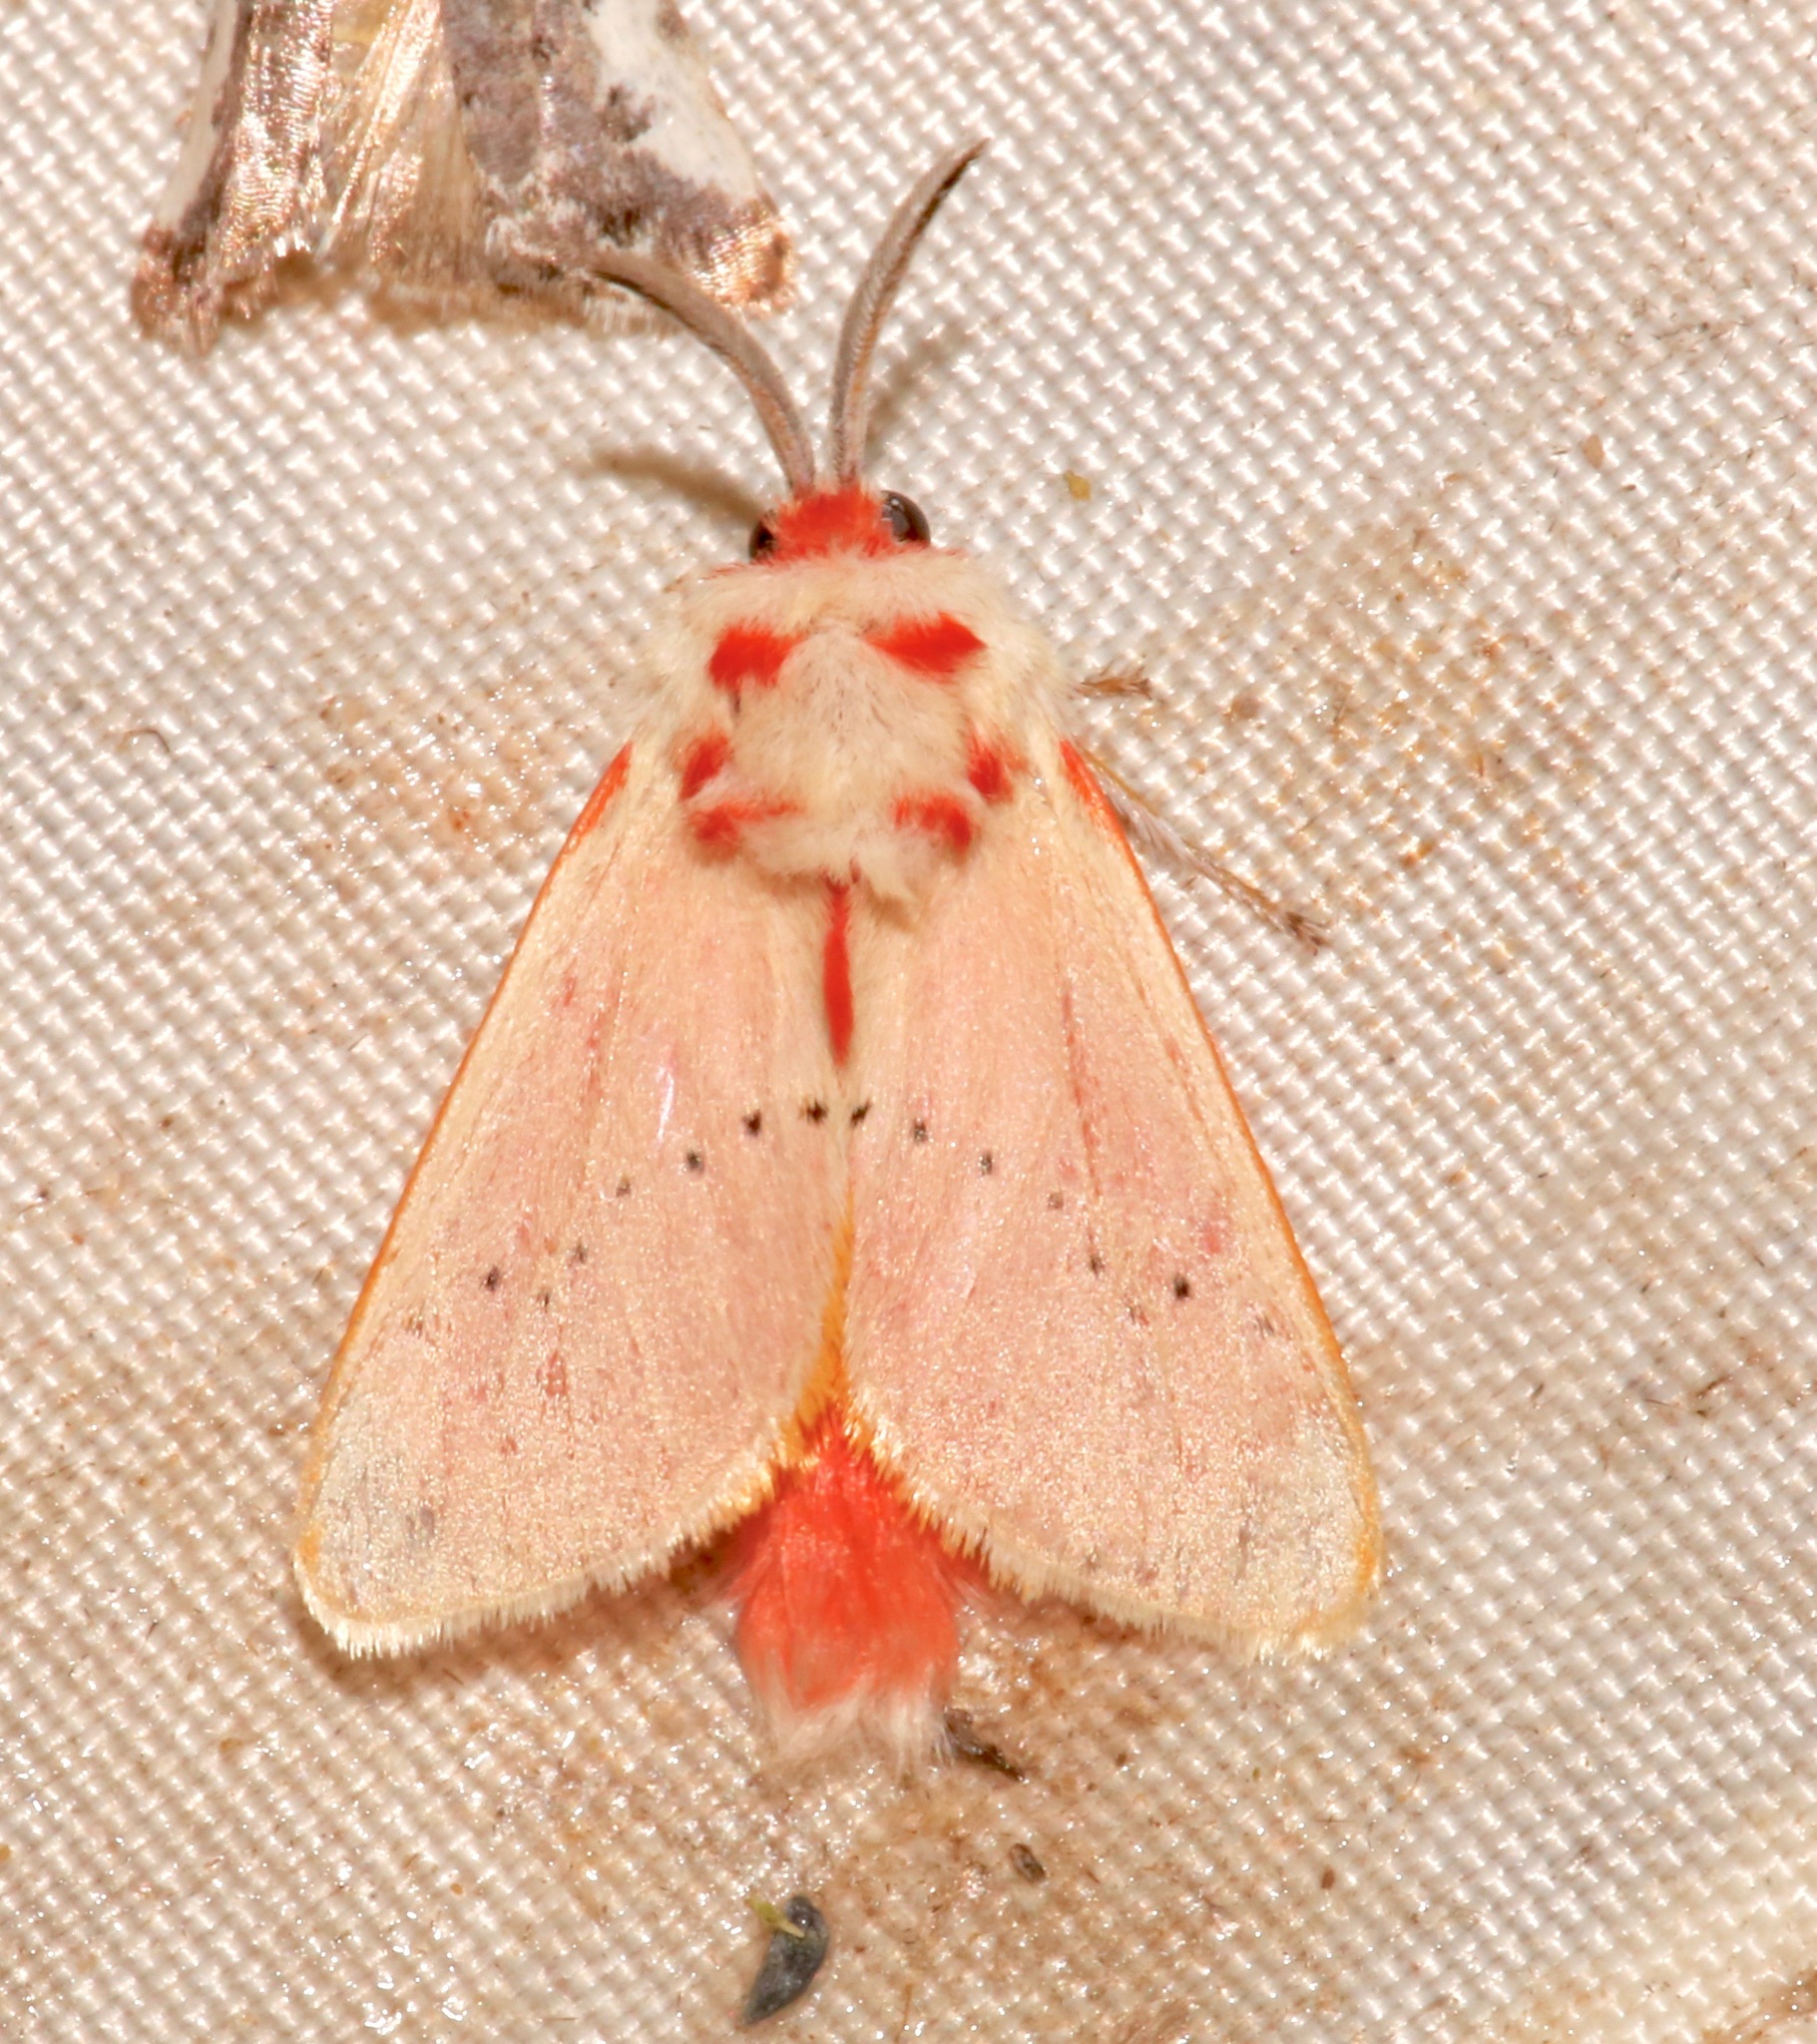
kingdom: Animalia
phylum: Arthropoda
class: Insecta
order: Lepidoptera
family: Megalopygidae
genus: Trosia
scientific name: Trosia obsolescens
